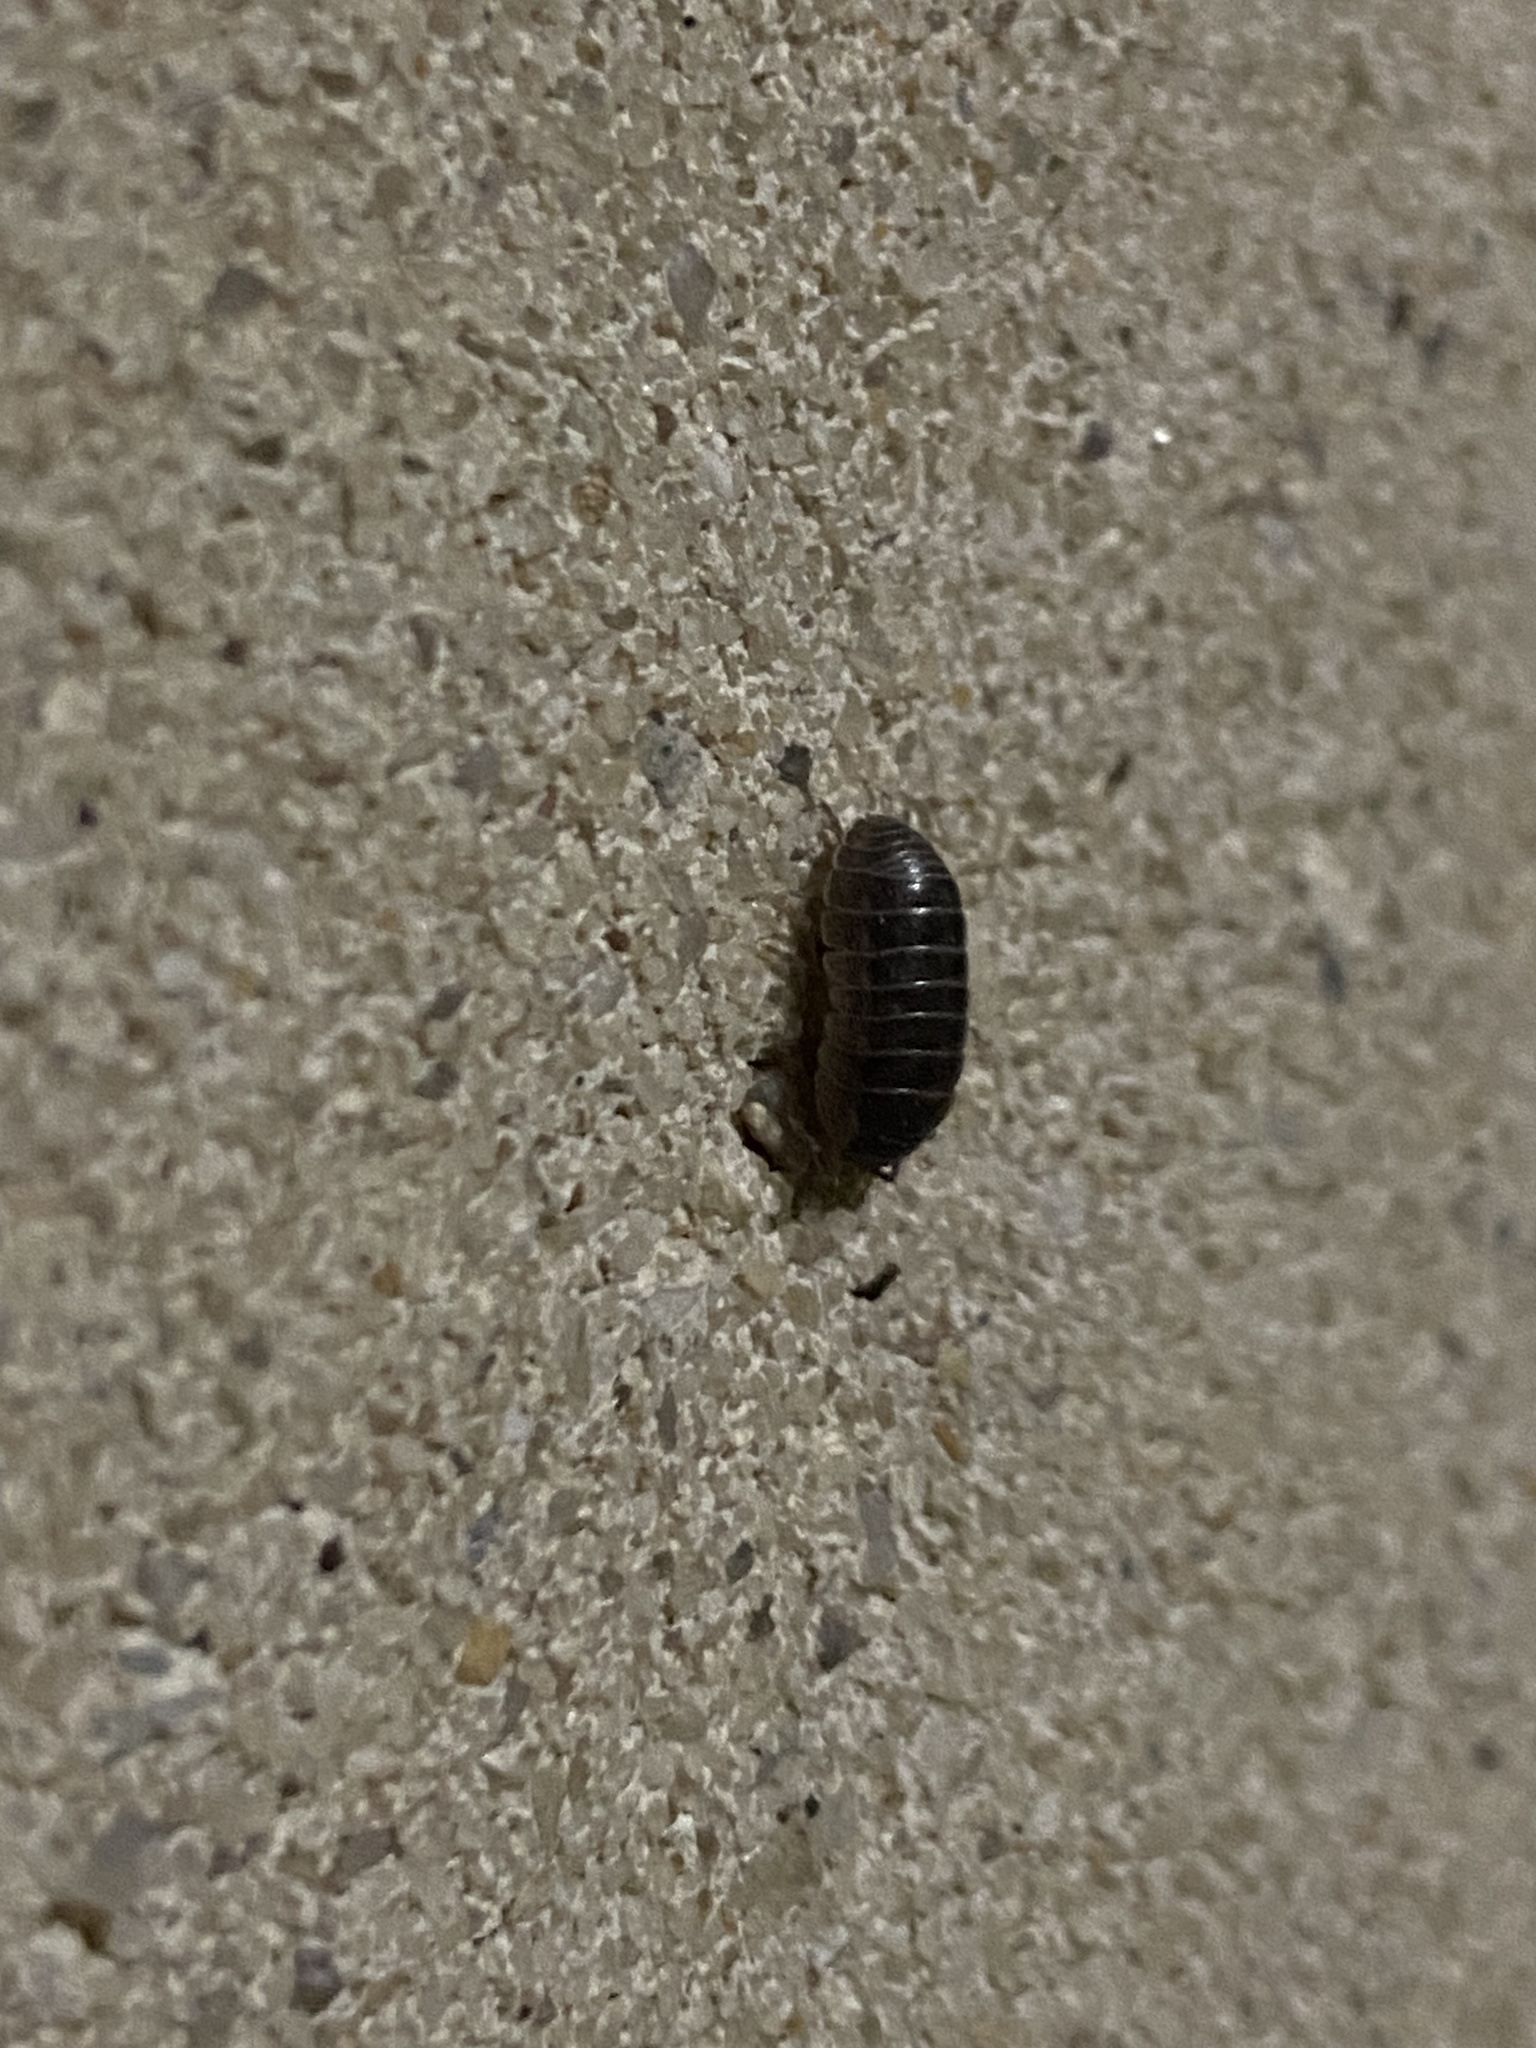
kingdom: Animalia
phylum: Arthropoda
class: Malacostraca
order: Isopoda
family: Armadillidiidae
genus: Armadillidium
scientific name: Armadillidium vulgare
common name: Common pill woodlouse
